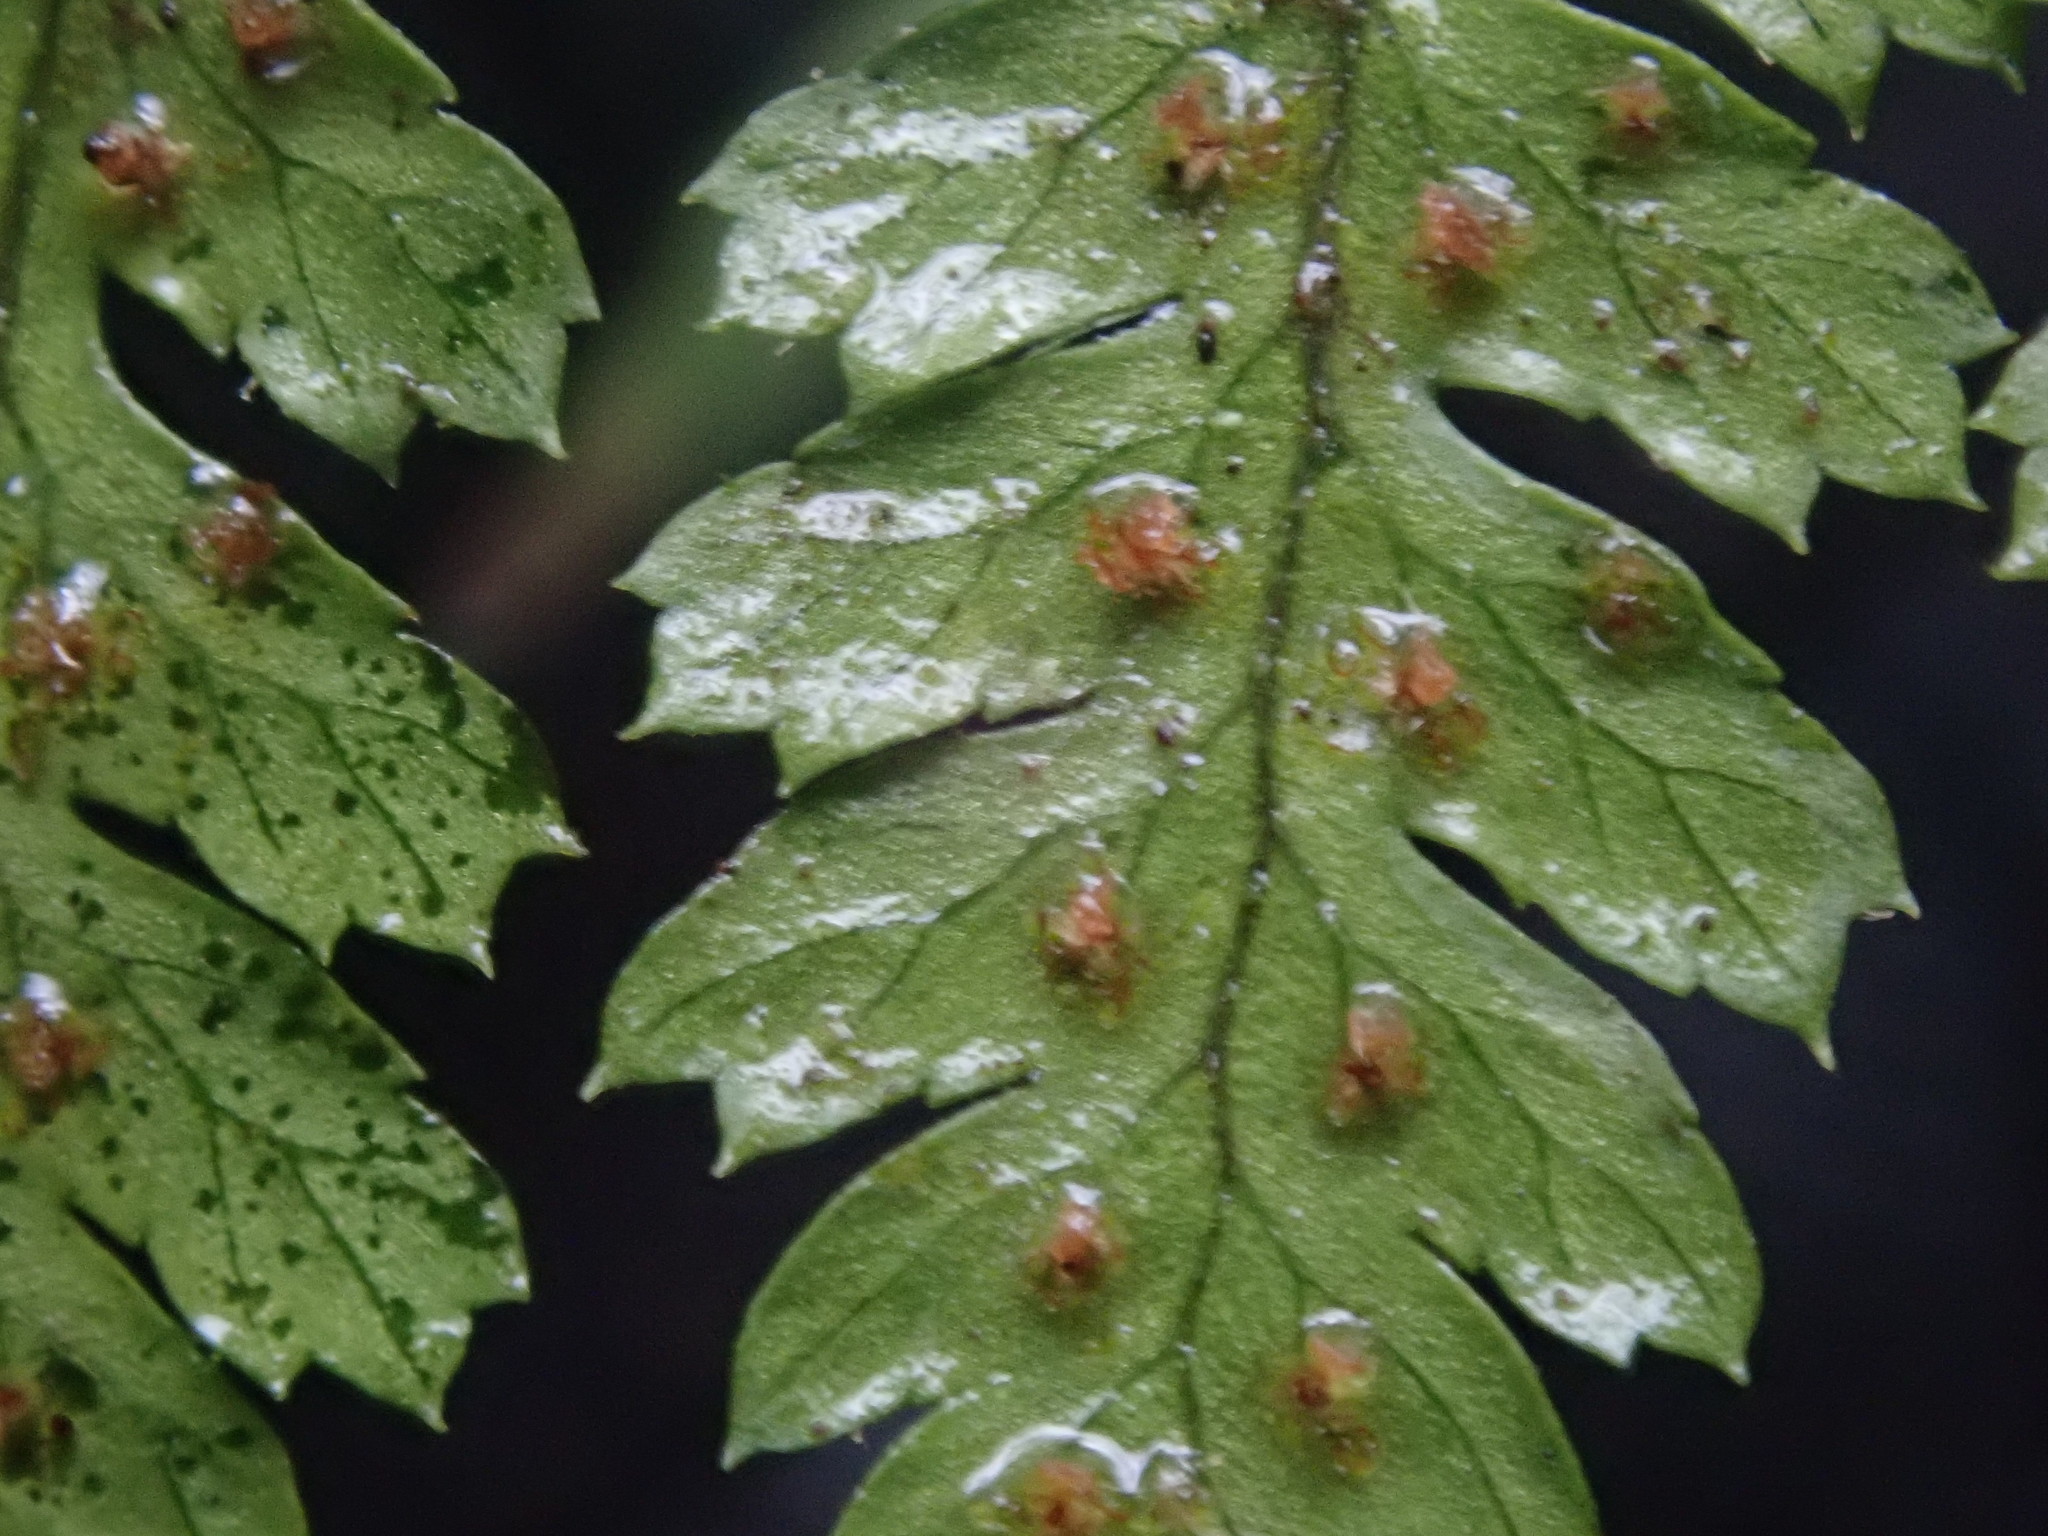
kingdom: Plantae
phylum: Tracheophyta
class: Polypodiopsida
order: Polypodiales
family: Dryopteridaceae
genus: Dryopteris
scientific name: Dryopteris intermedia
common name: Evergreen wood fern
